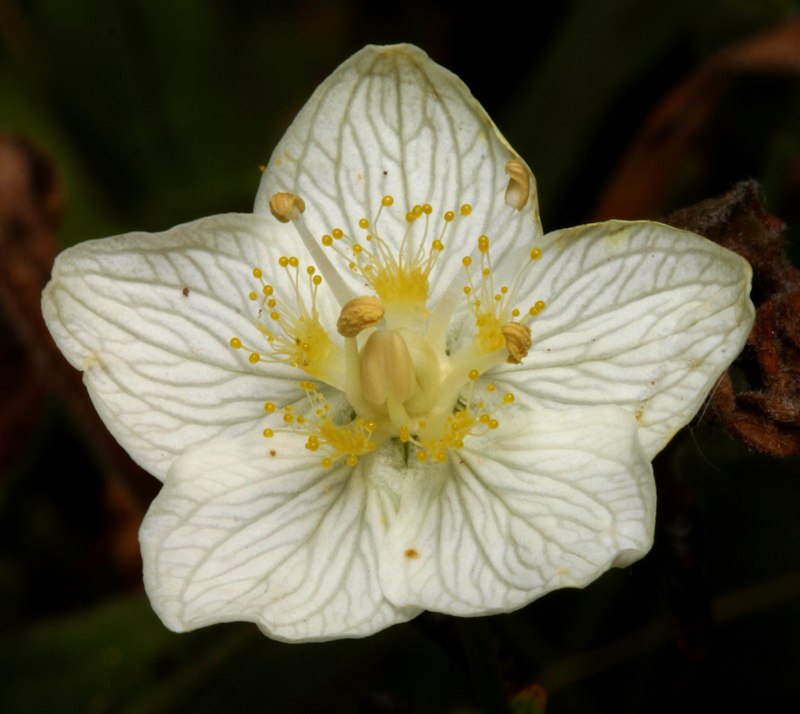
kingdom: Plantae
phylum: Tracheophyta
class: Magnoliopsida
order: Celastrales
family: Parnassiaceae
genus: Parnassia
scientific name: Parnassia palustris
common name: Grass-of-parnassus
